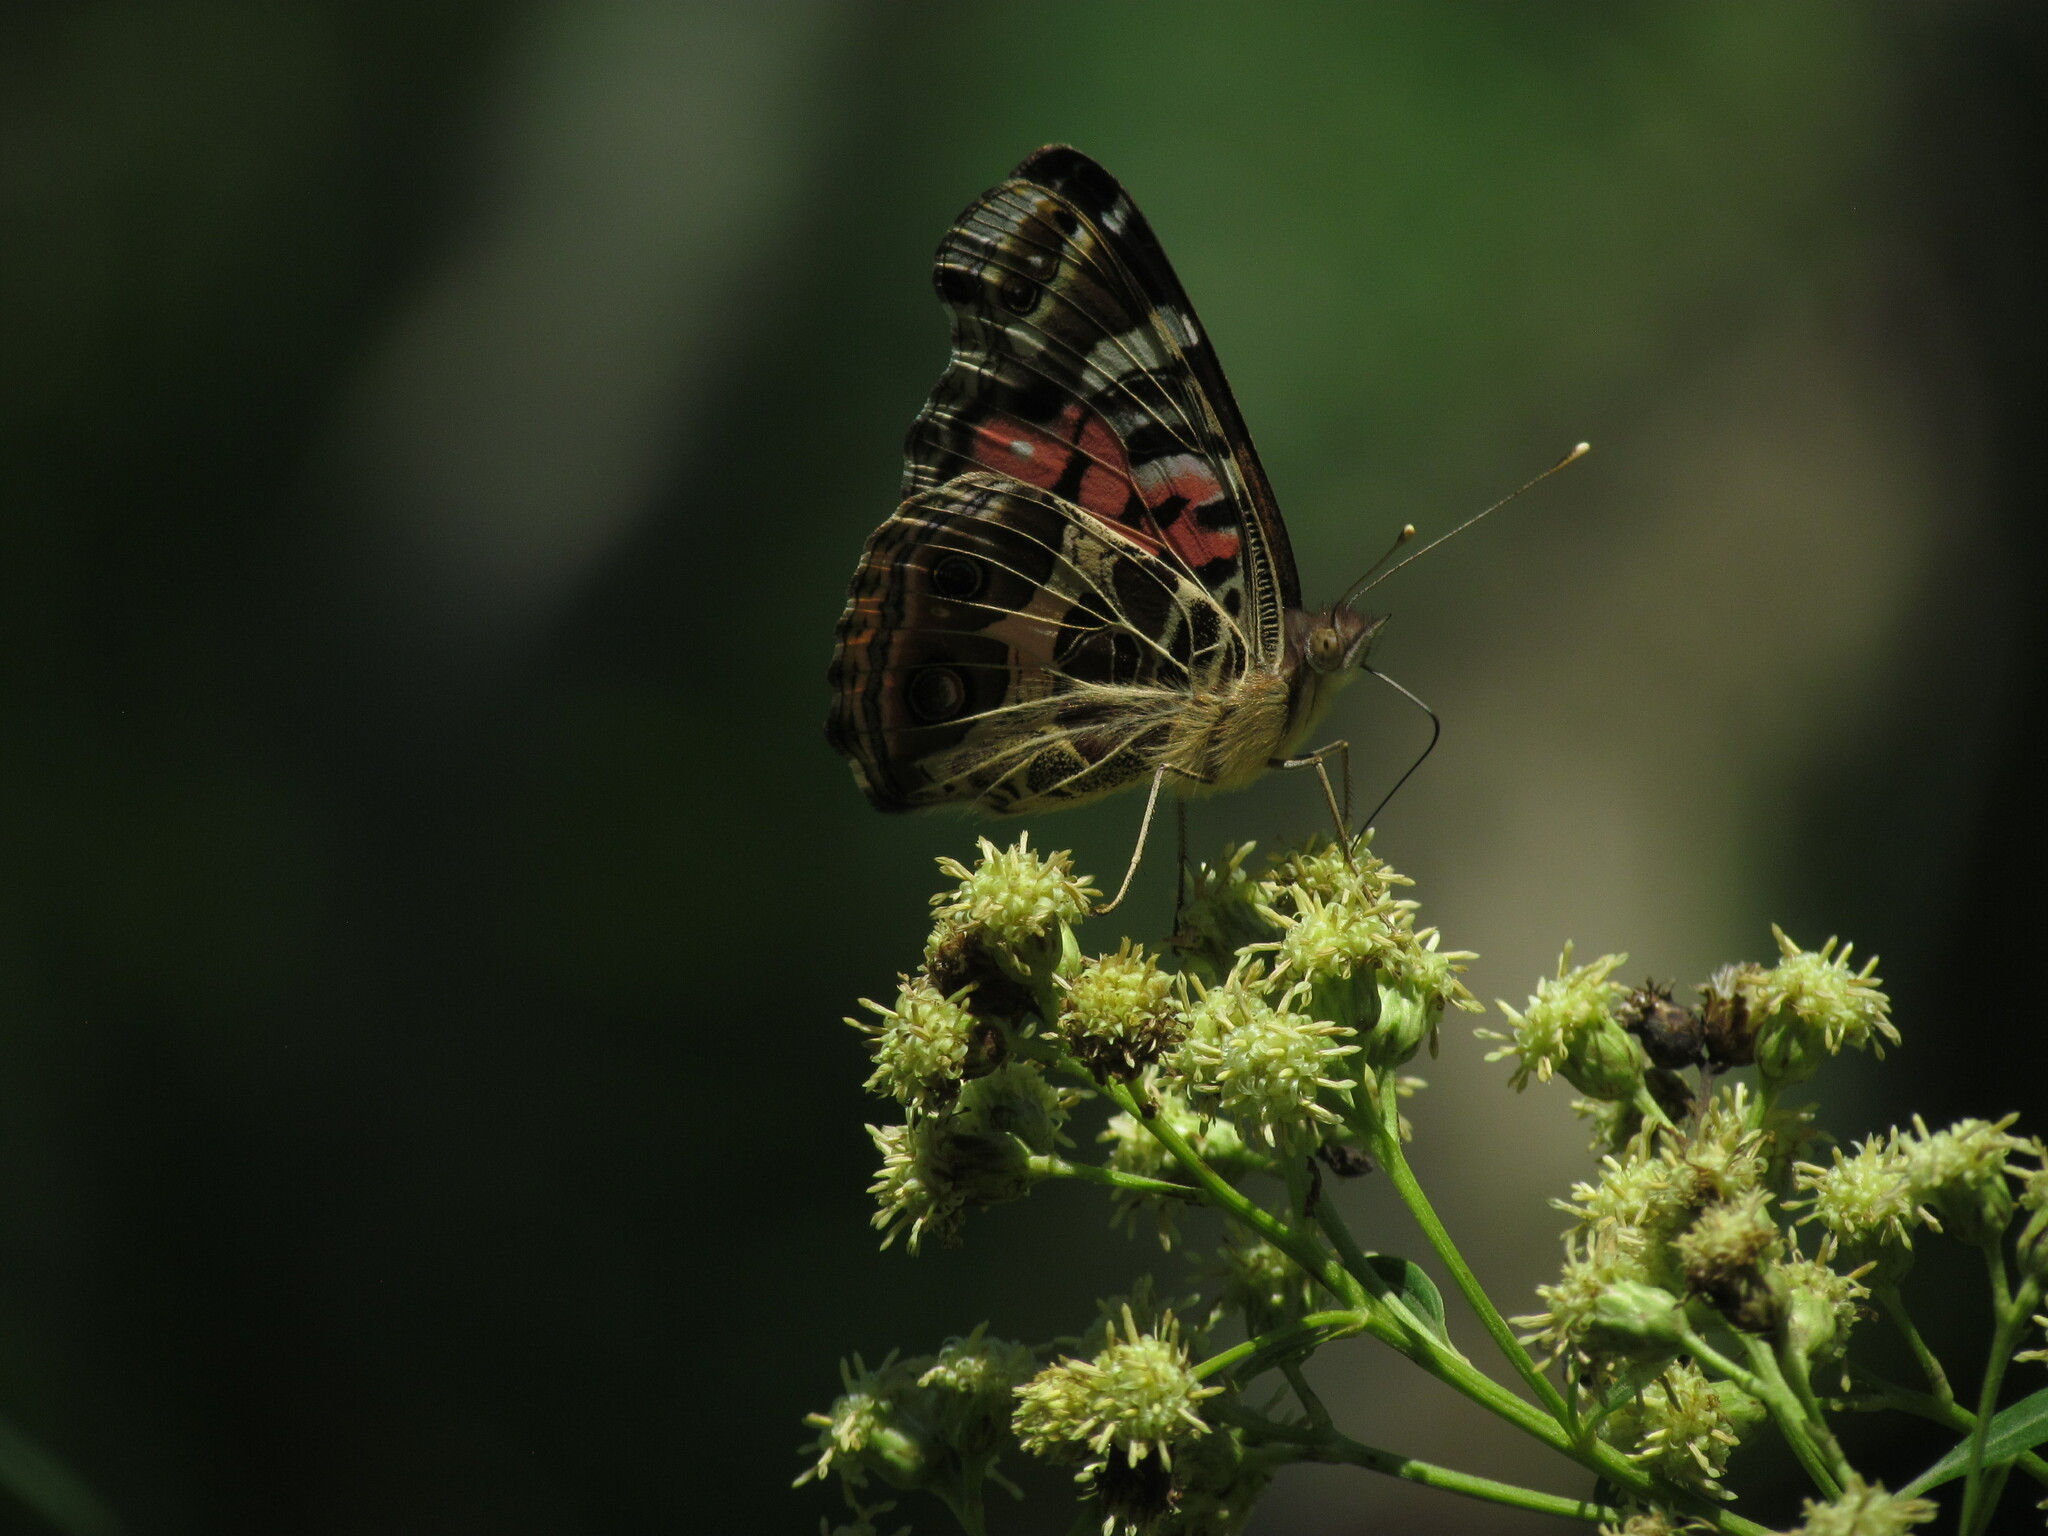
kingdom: Animalia
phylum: Arthropoda
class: Insecta
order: Lepidoptera
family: Nymphalidae
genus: Vanessa
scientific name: Vanessa braziliensis
